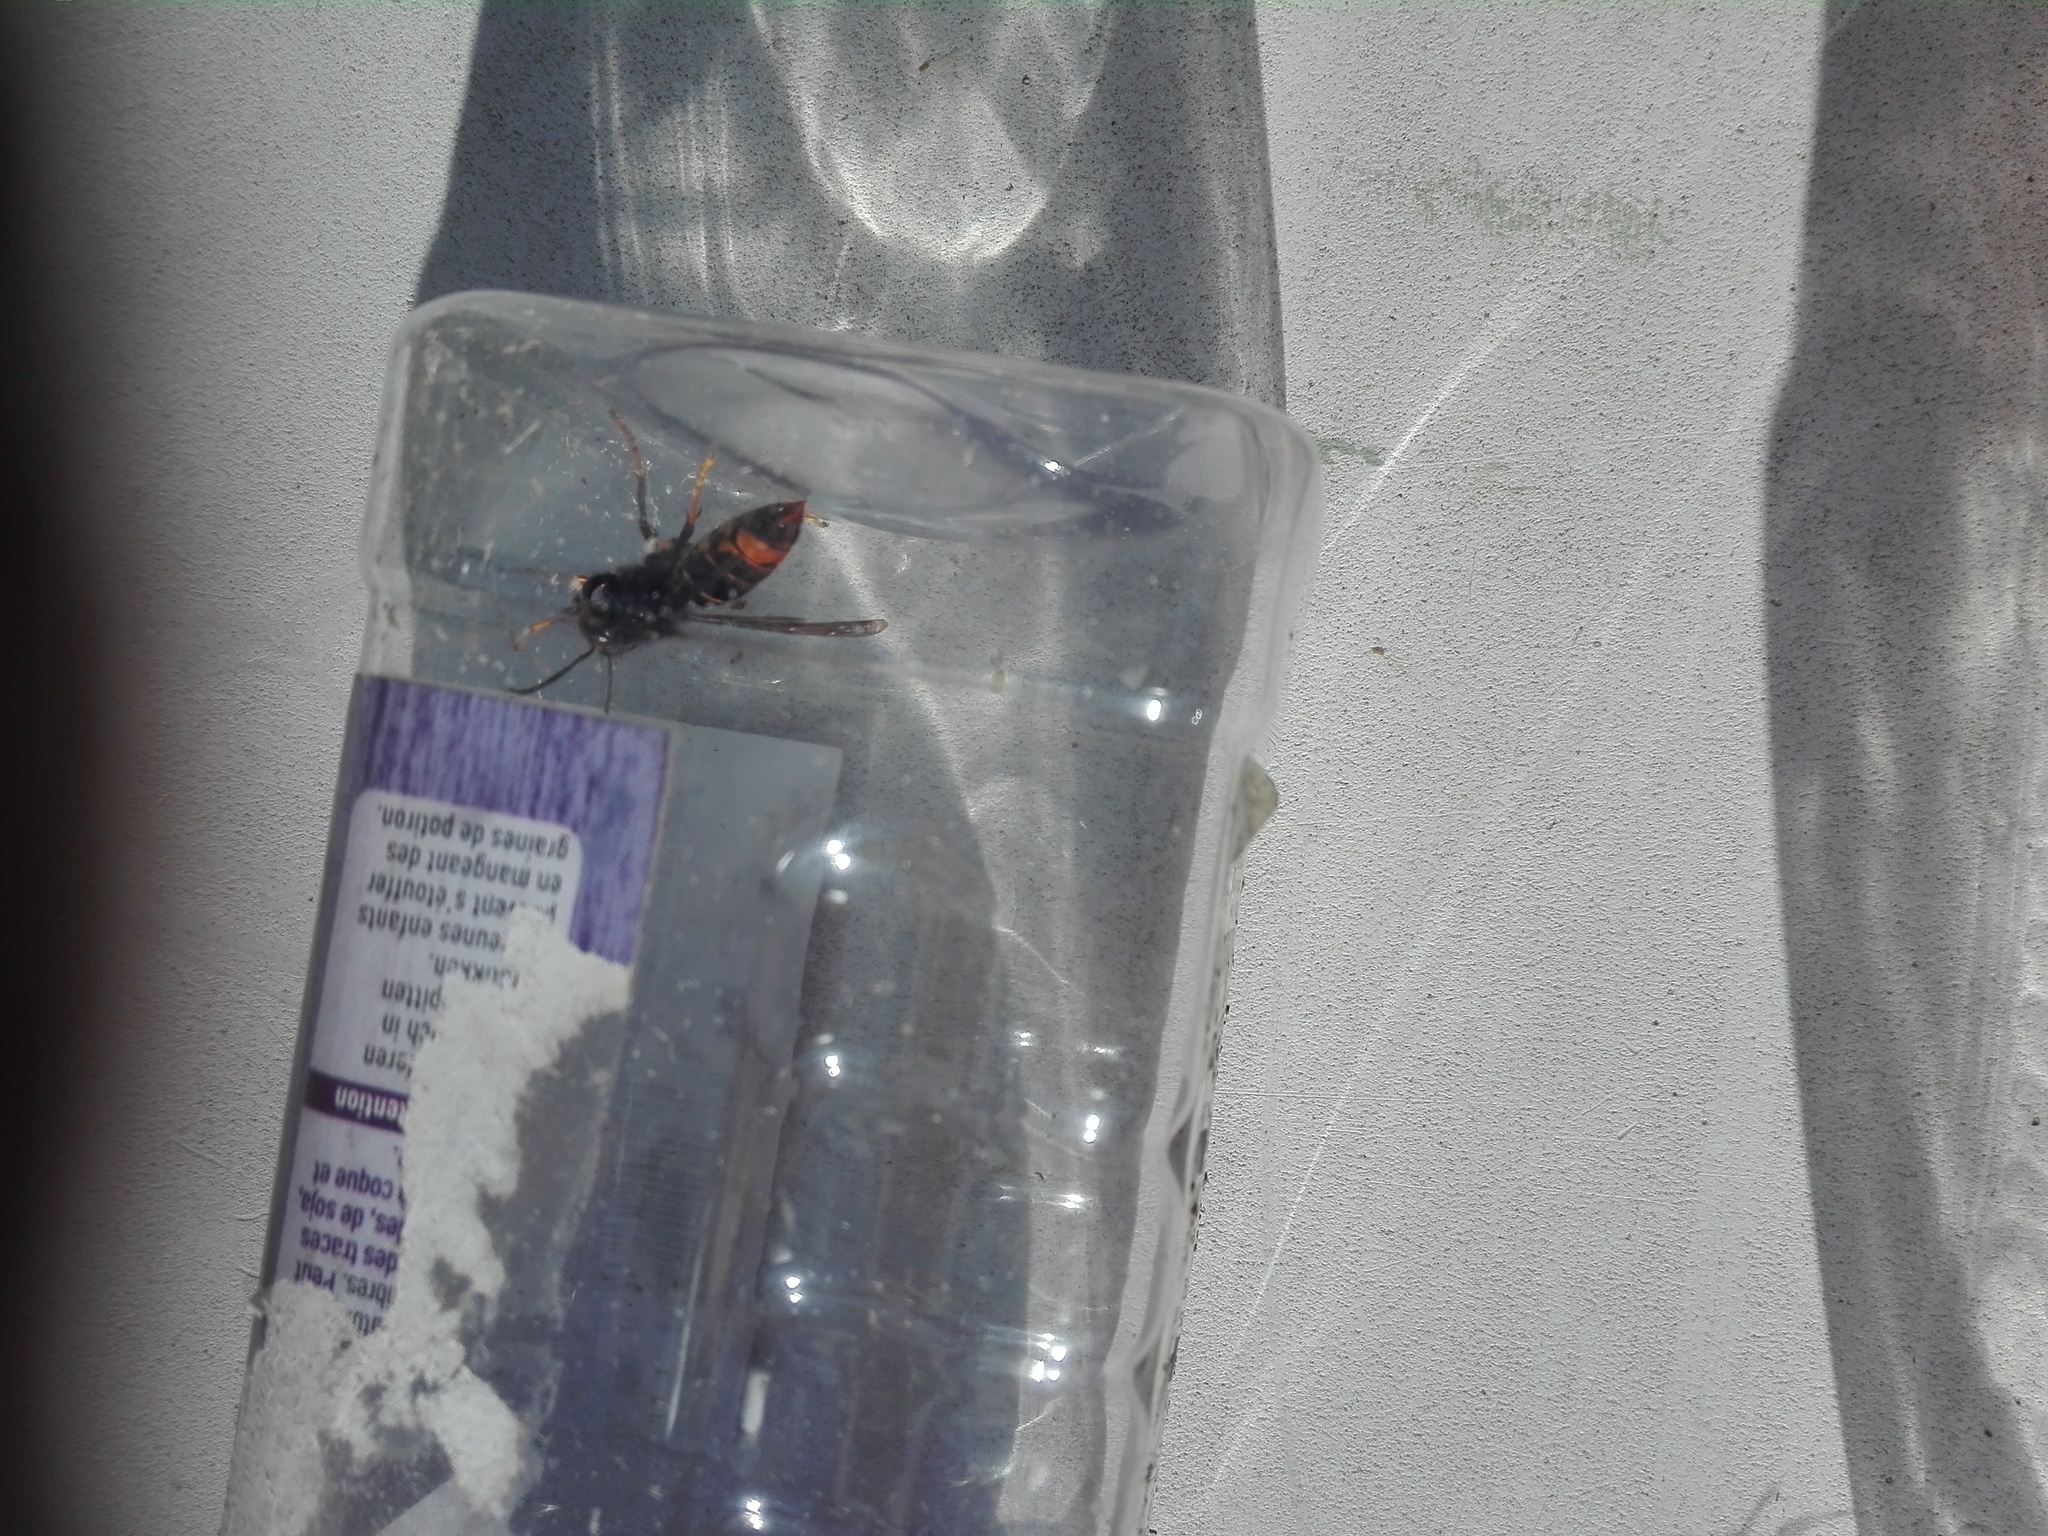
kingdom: Animalia
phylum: Arthropoda
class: Insecta
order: Hymenoptera
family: Vespidae
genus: Vespa
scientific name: Vespa velutina
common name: Asian hornet
